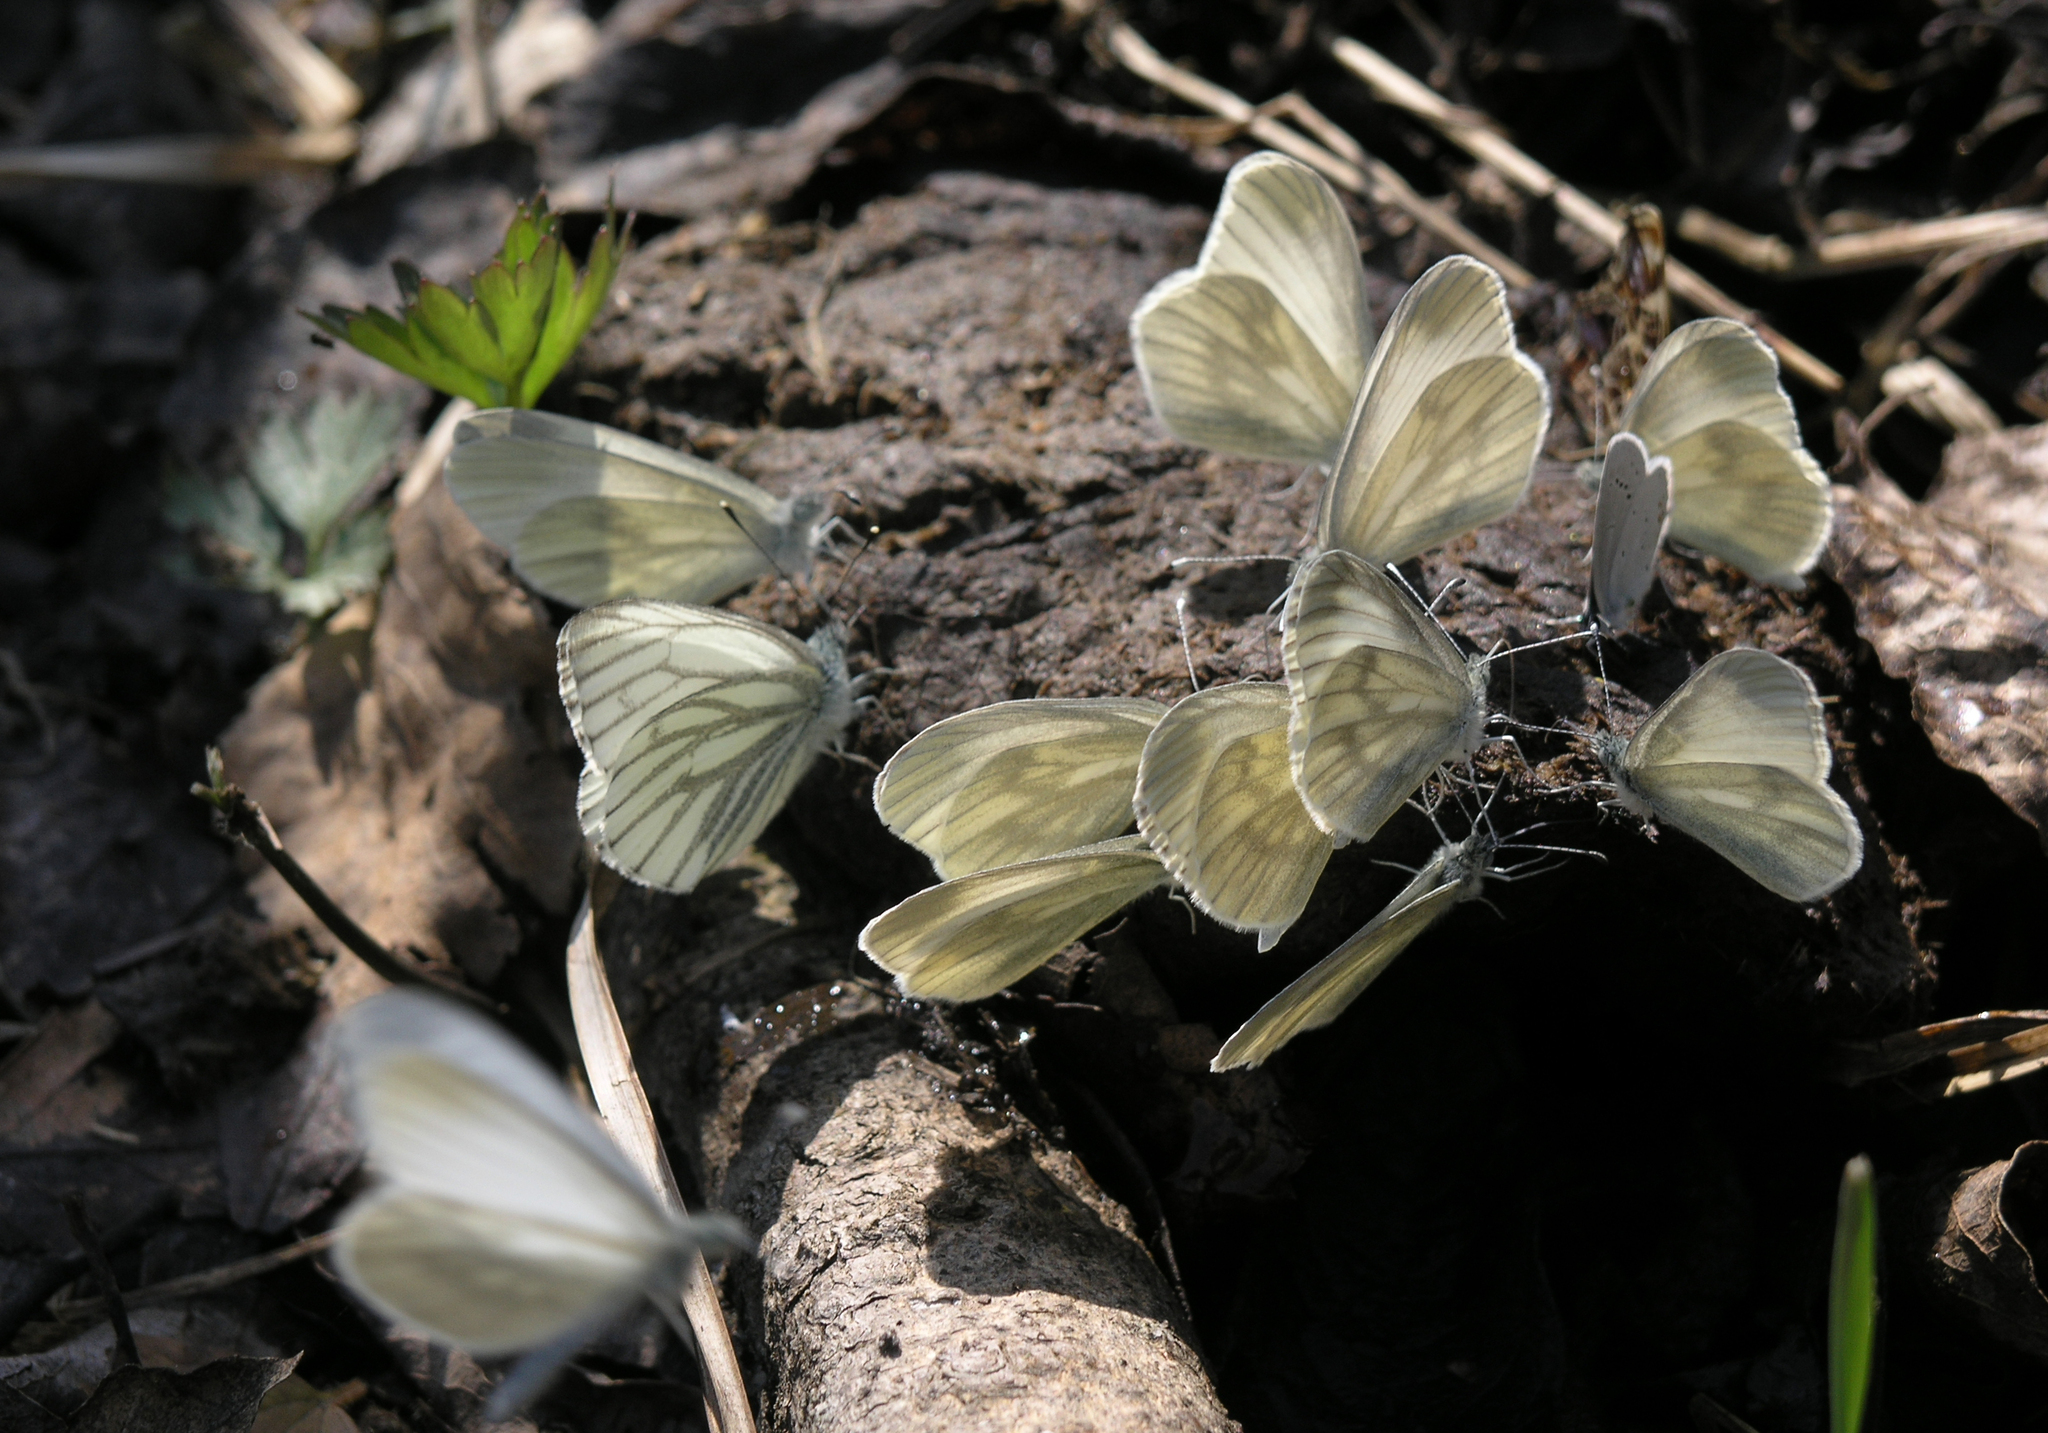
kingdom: Animalia
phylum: Arthropoda
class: Insecta
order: Lepidoptera
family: Pieridae
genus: Pieris
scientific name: Pieris napi
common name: Green-veined white
